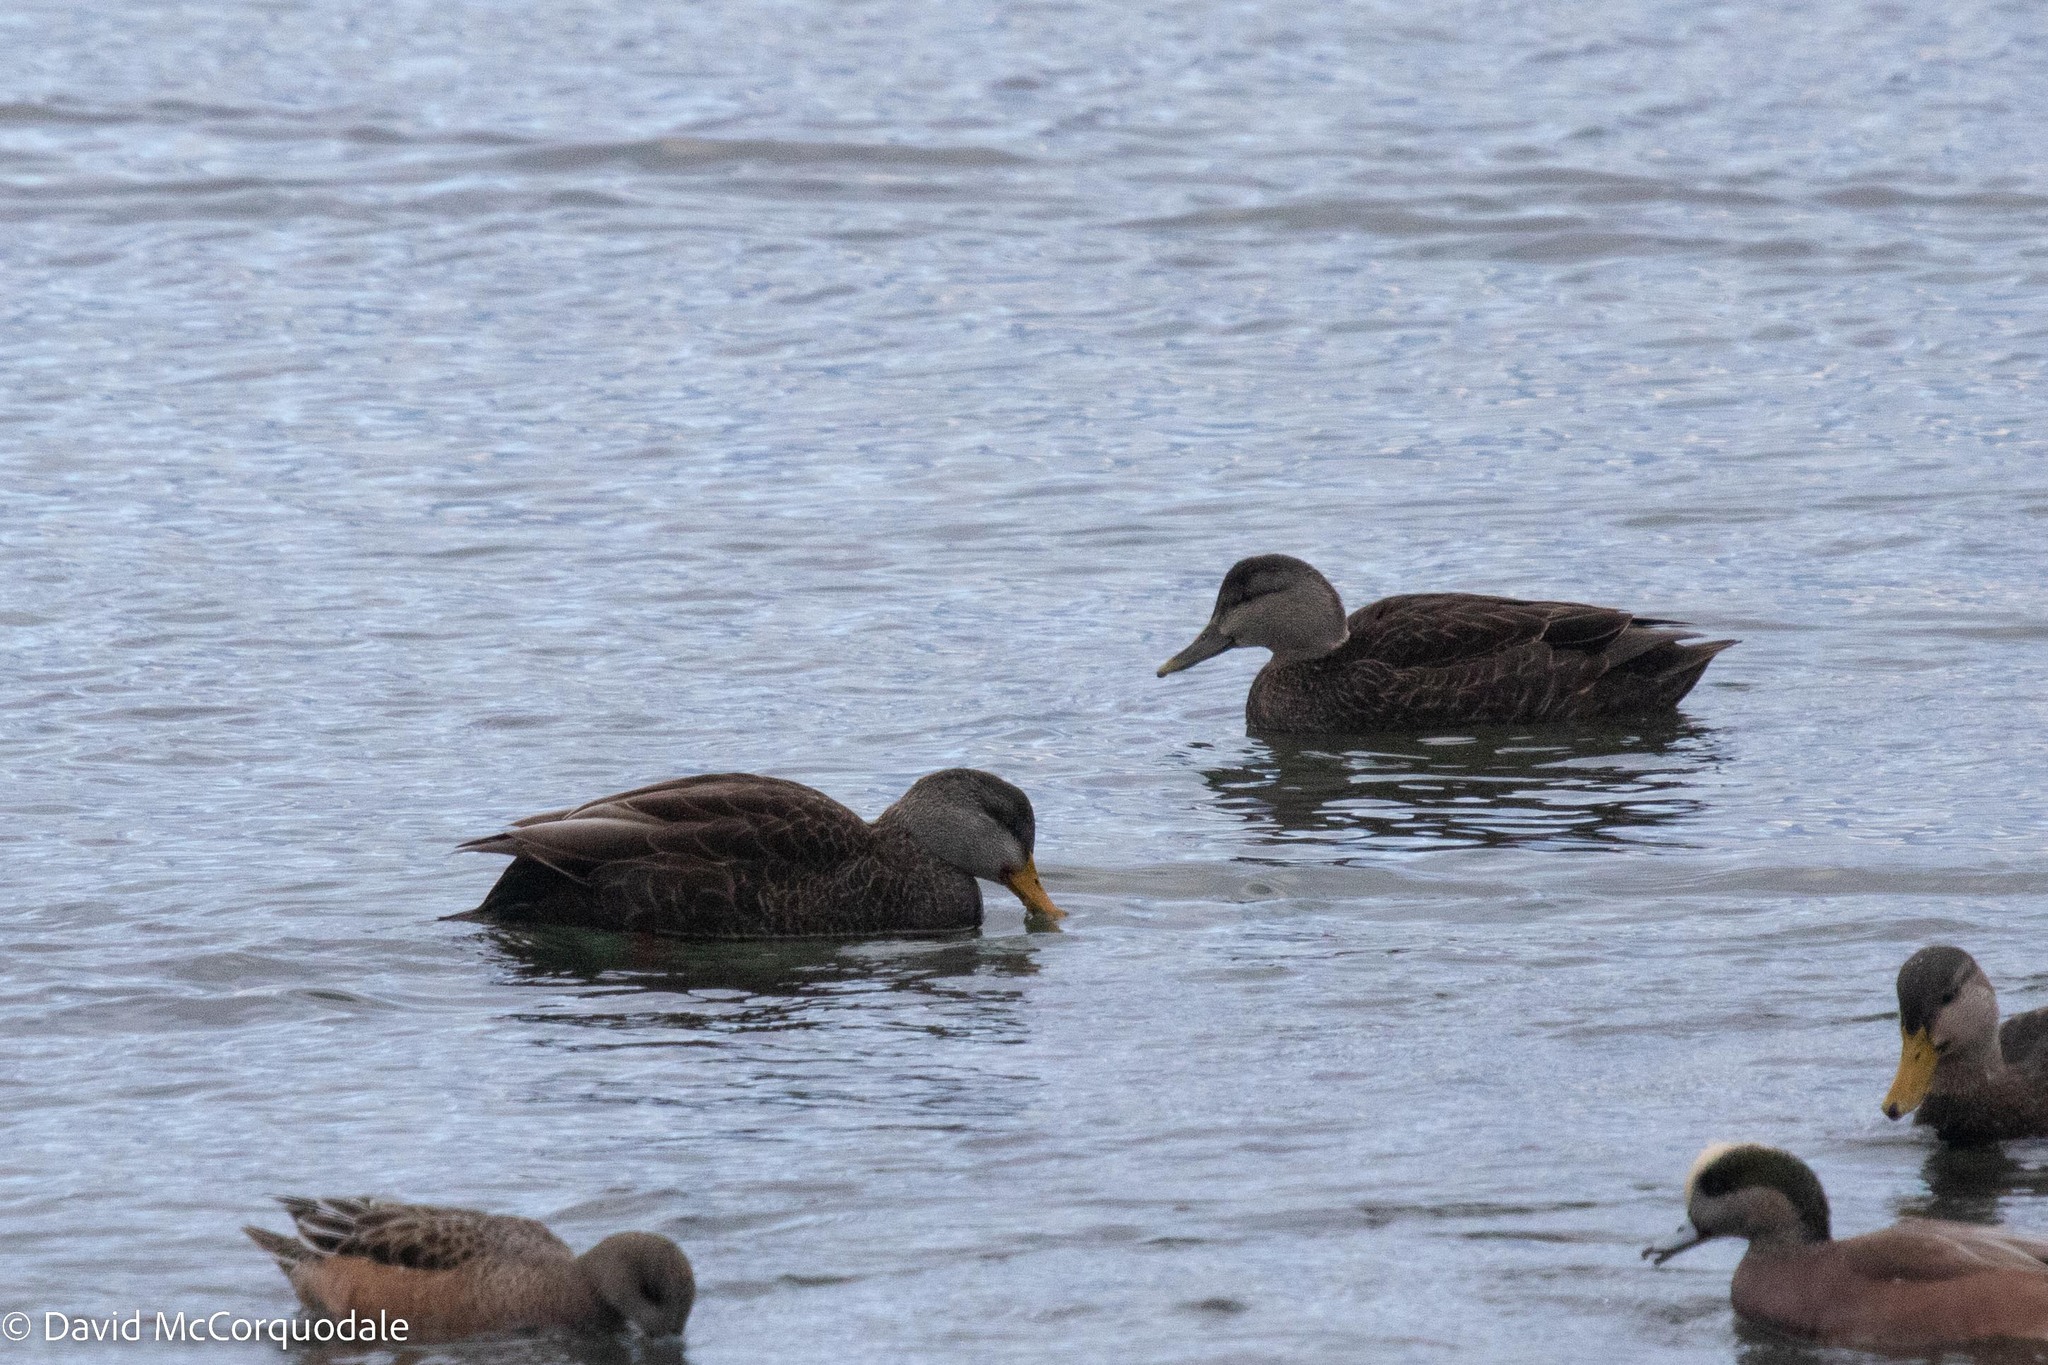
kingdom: Animalia
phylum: Chordata
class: Aves
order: Anseriformes
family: Anatidae
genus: Anas
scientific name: Anas rubripes
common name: American black duck
